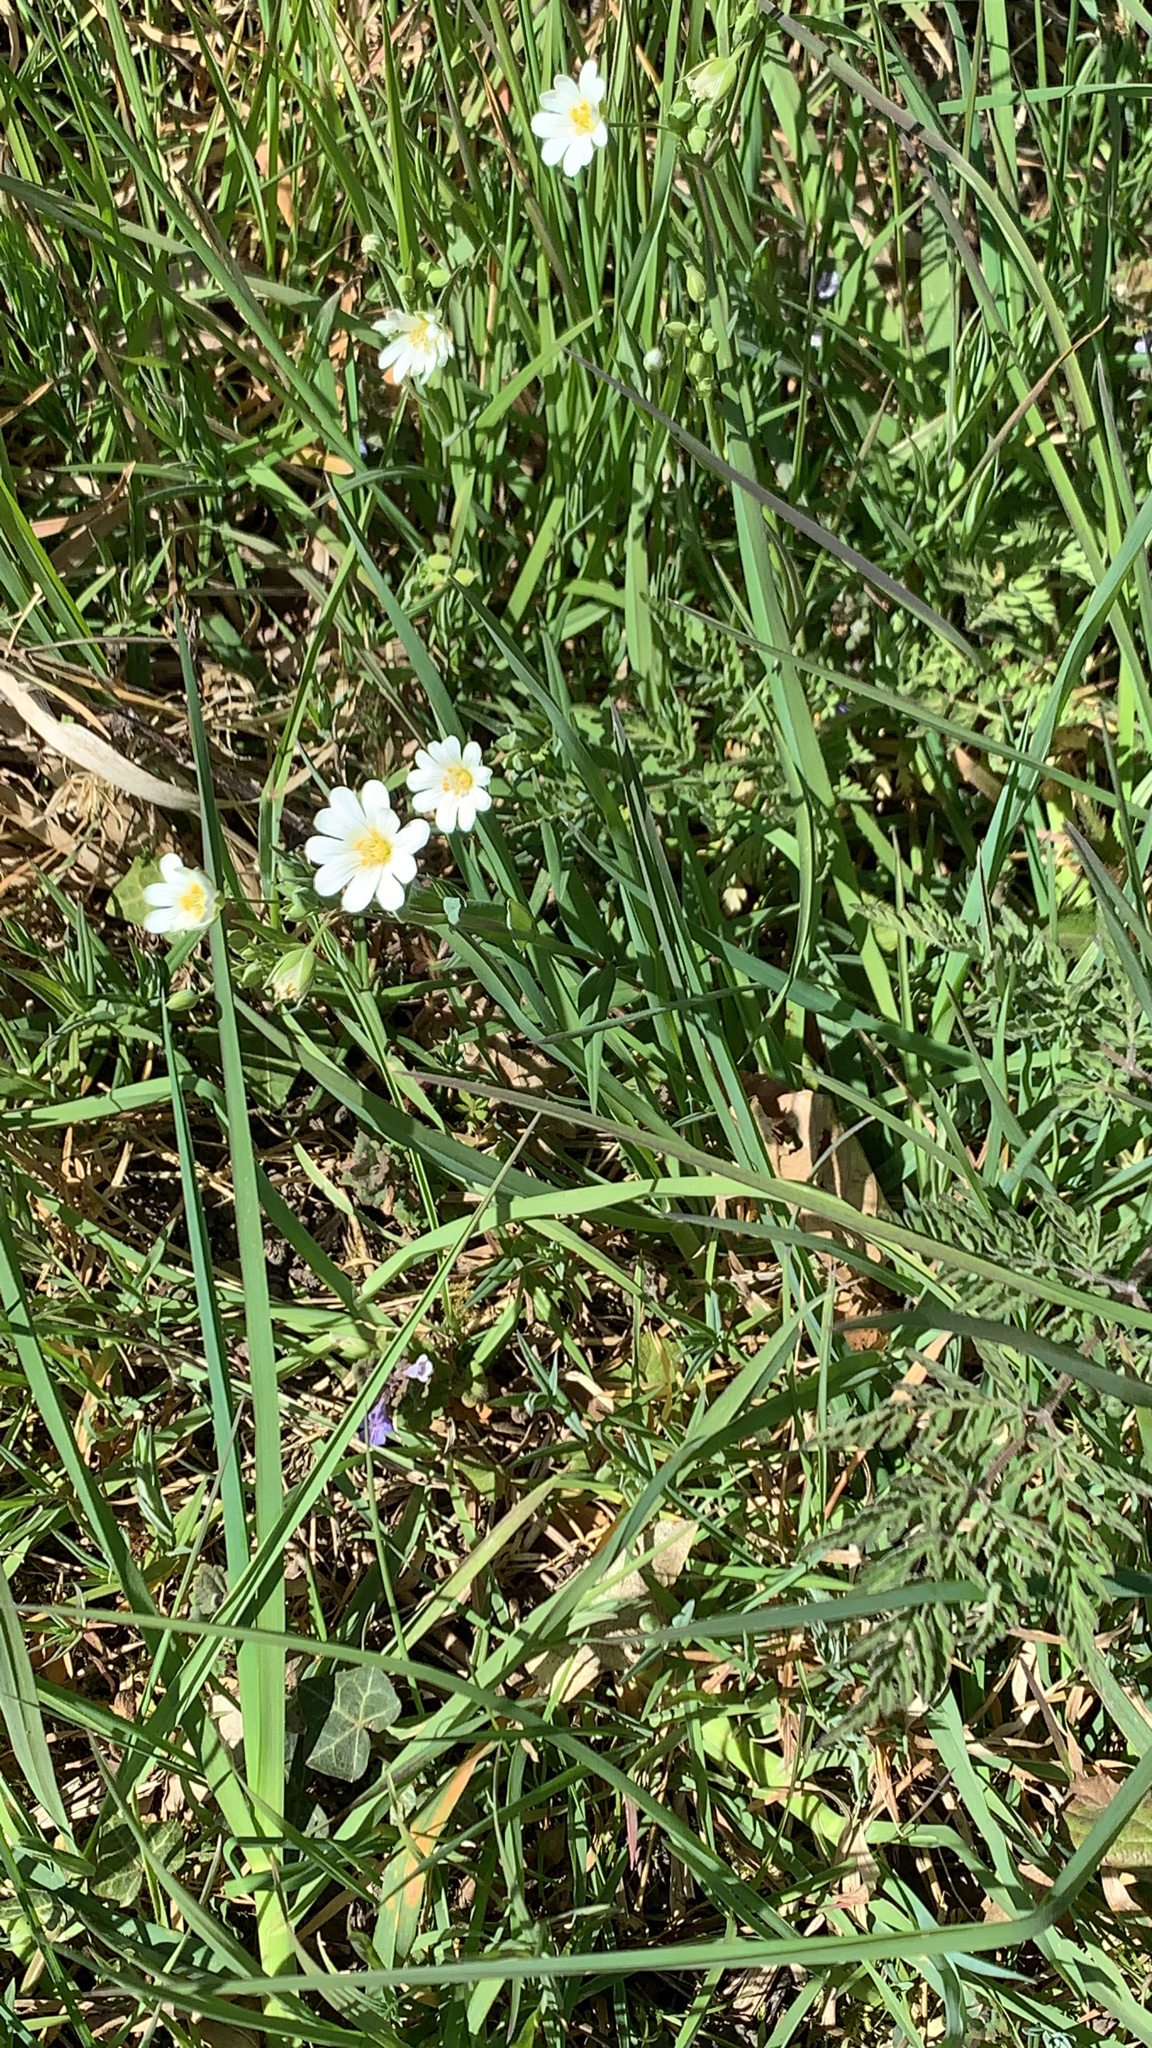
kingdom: Plantae
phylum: Tracheophyta
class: Magnoliopsida
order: Caryophyllales
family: Caryophyllaceae
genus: Rabelera
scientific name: Rabelera holostea
